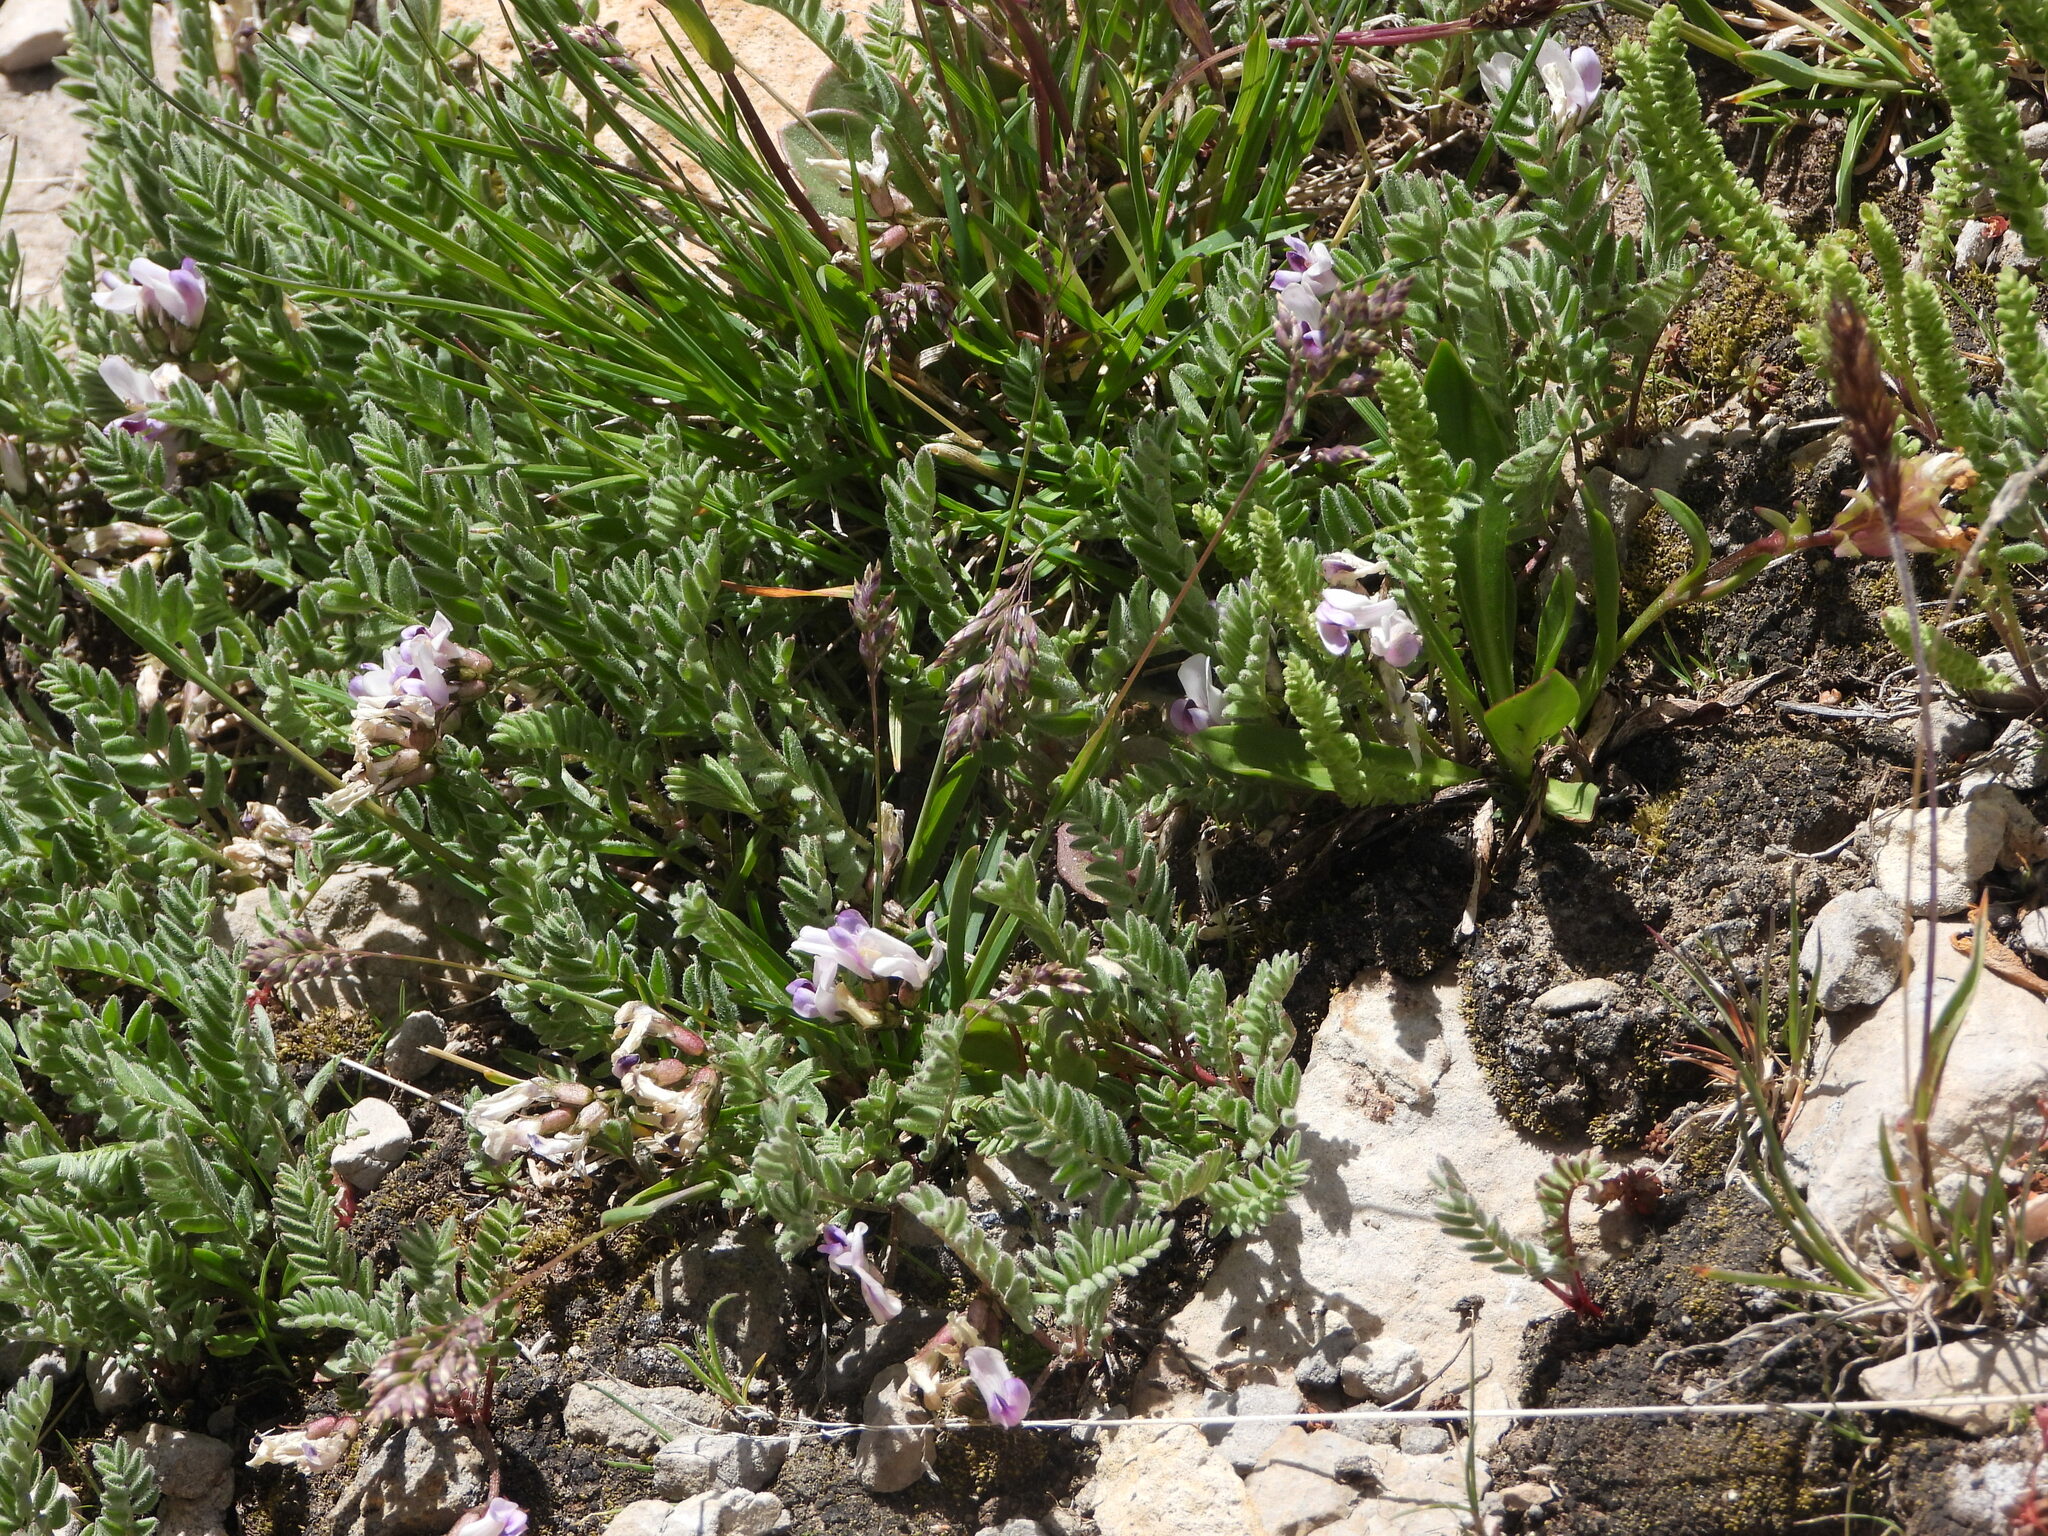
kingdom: Plantae
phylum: Tracheophyta
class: Magnoliopsida
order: Fabales
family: Fabaceae
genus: Astragalus
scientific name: Astragalus molybdenus
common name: Leadville
